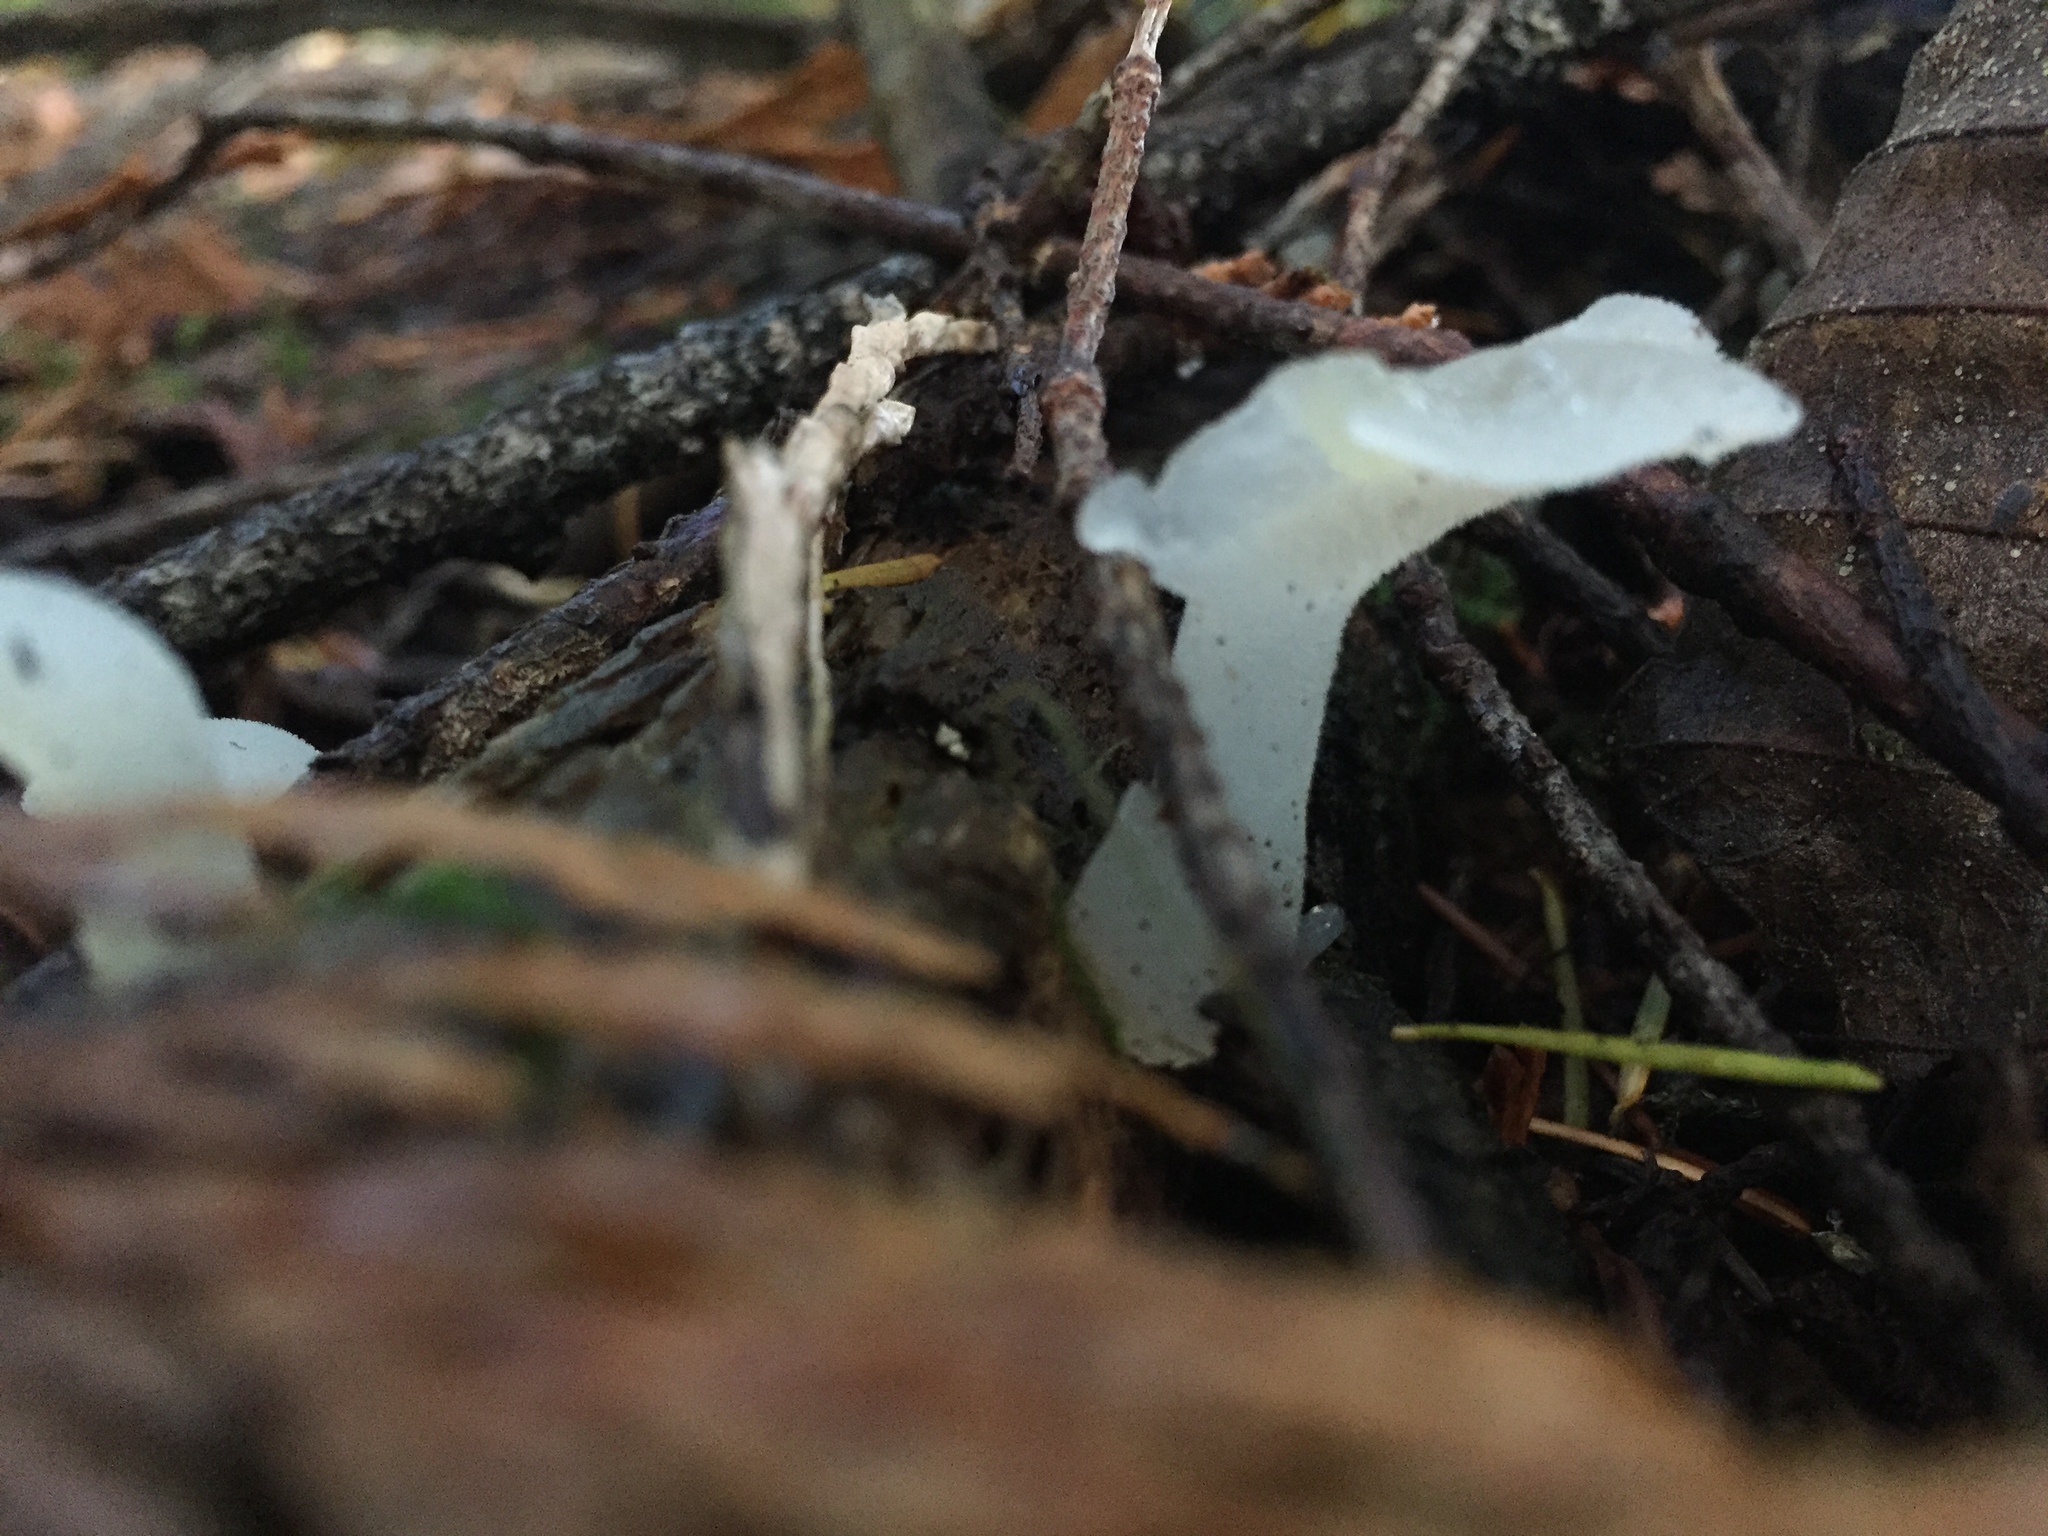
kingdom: Fungi
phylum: Basidiomycota
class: Agaricomycetes
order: Auriculariales
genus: Pseudohydnum
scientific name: Pseudohydnum gelatinosum
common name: Jelly tongue
